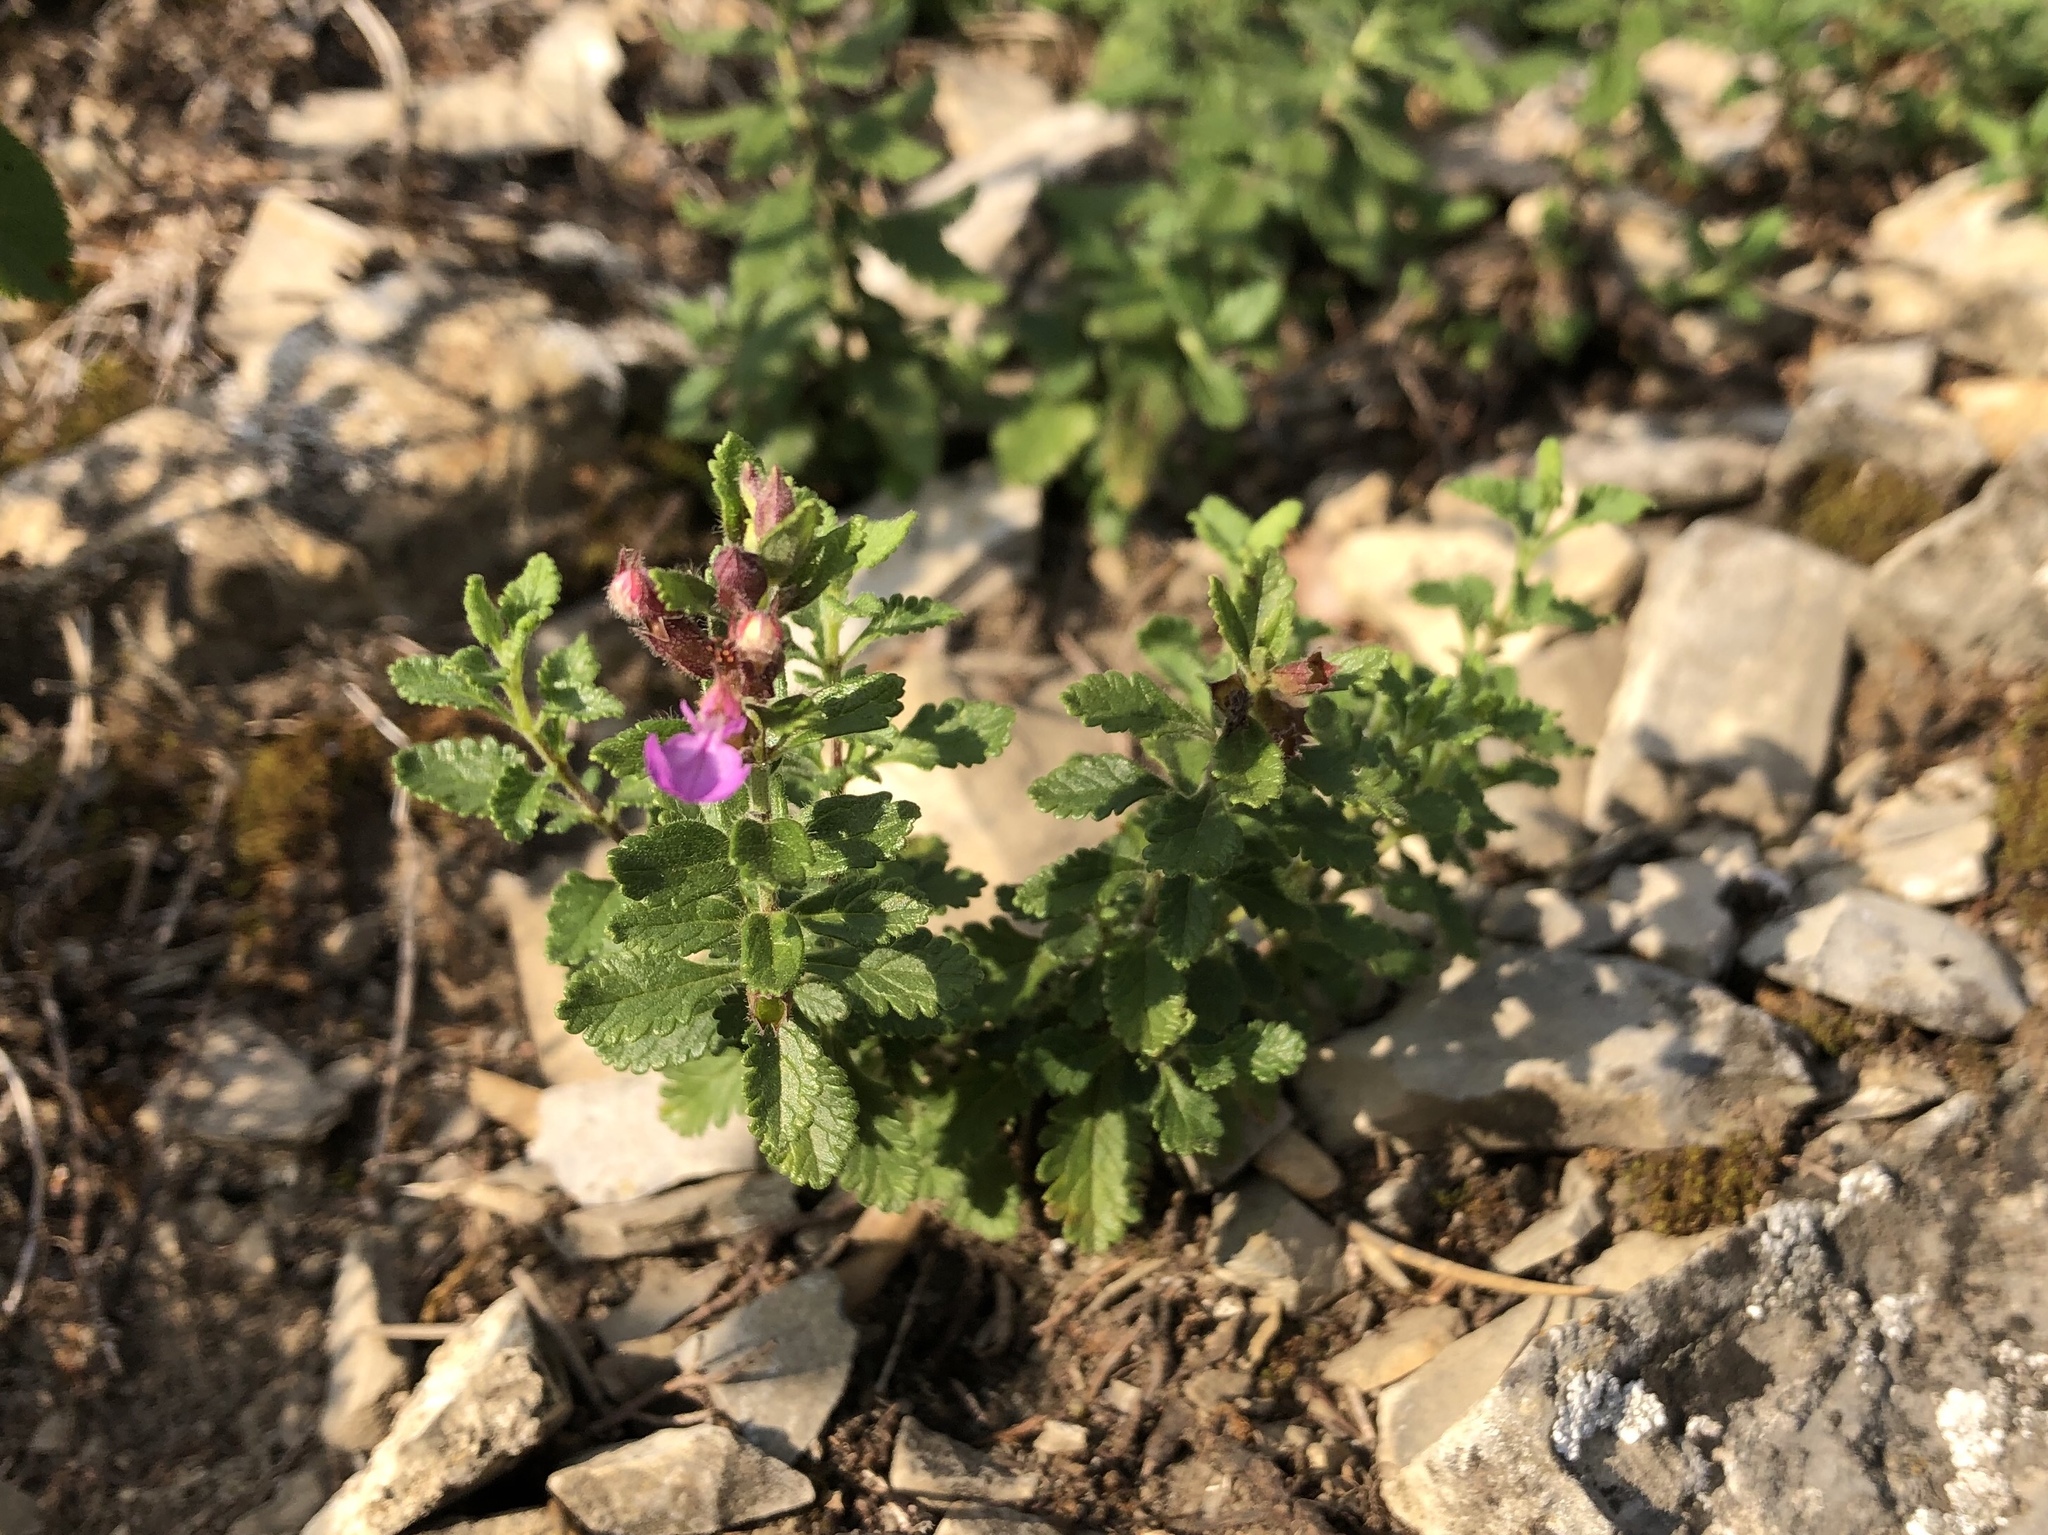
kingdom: Plantae
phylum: Tracheophyta
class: Magnoliopsida
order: Lamiales
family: Lamiaceae
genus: Teucrium
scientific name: Teucrium chamaedrys
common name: Wall germander
